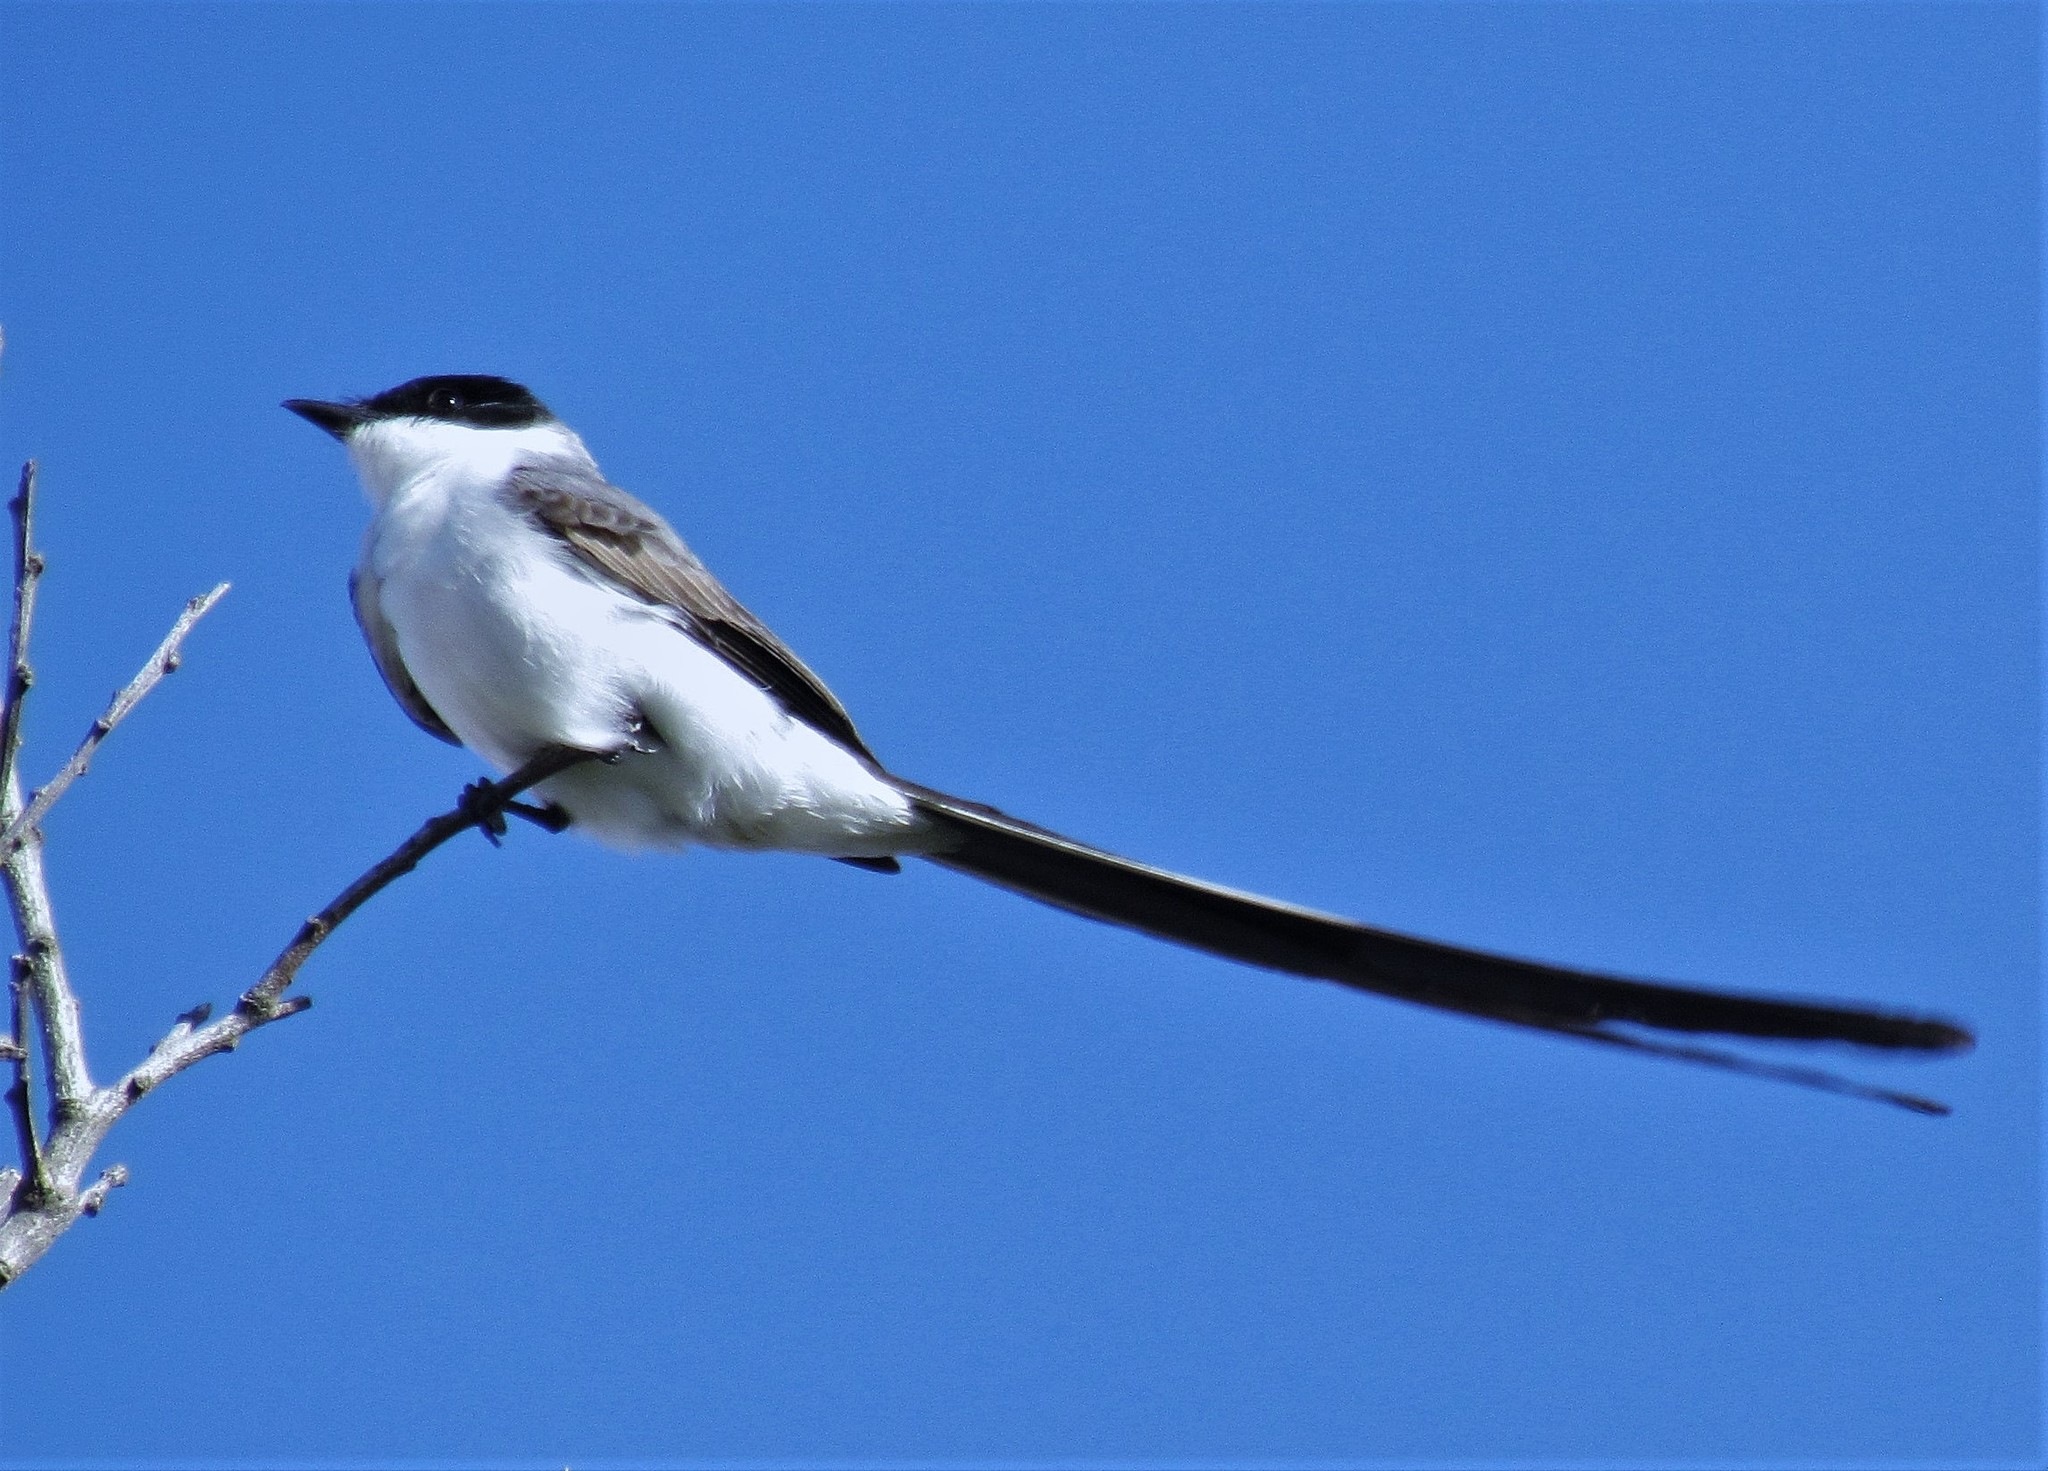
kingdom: Animalia
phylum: Chordata
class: Aves
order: Passeriformes
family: Tyrannidae
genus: Tyrannus
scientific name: Tyrannus savana
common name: Fork-tailed flycatcher
